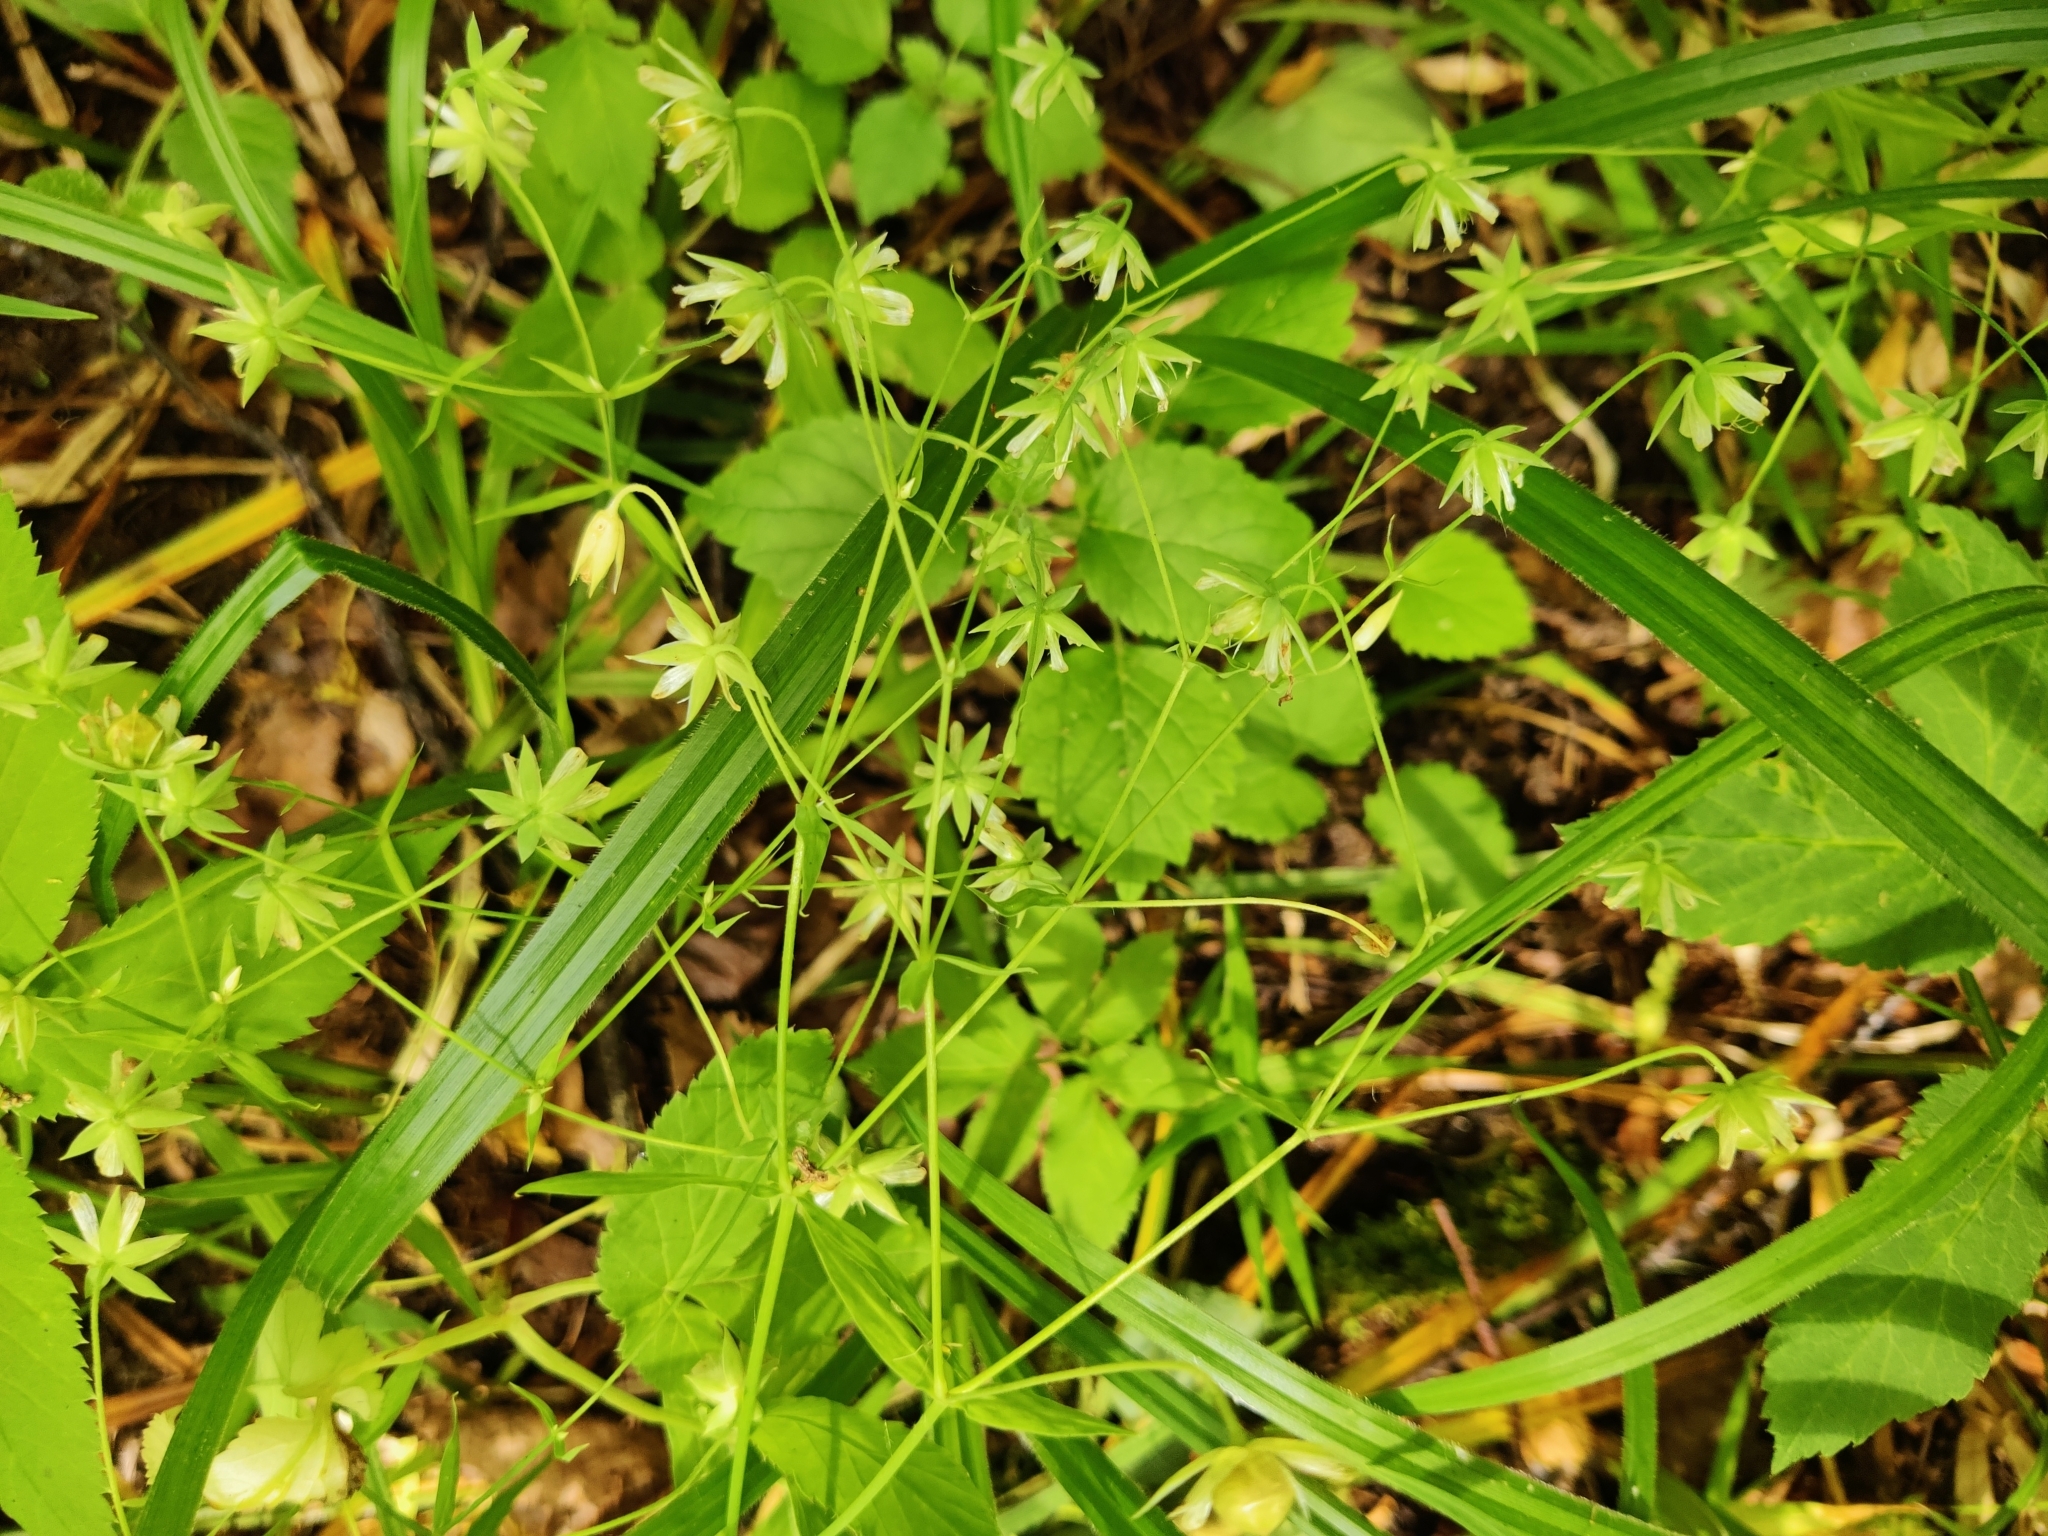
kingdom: Plantae
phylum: Tracheophyta
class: Magnoliopsida
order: Caryophyllales
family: Caryophyllaceae
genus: Rabelera
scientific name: Rabelera holostea
